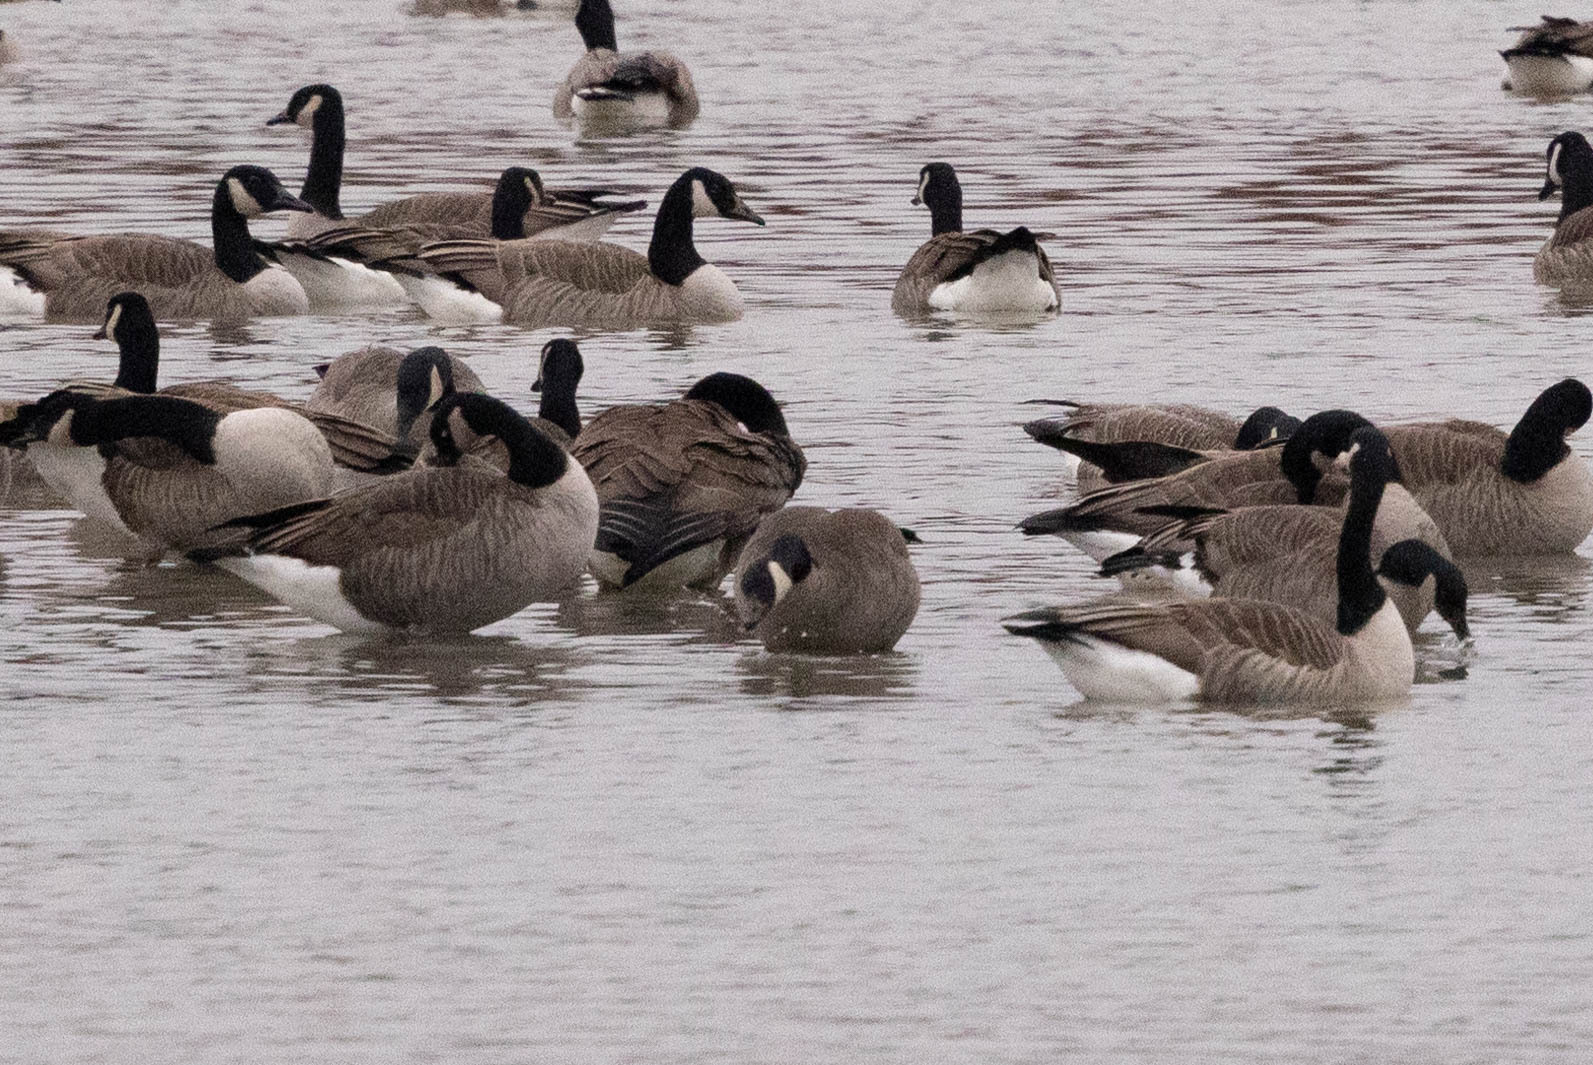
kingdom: Animalia
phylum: Chordata
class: Aves
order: Anseriformes
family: Anatidae
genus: Branta
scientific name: Branta canadensis
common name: Canada goose
